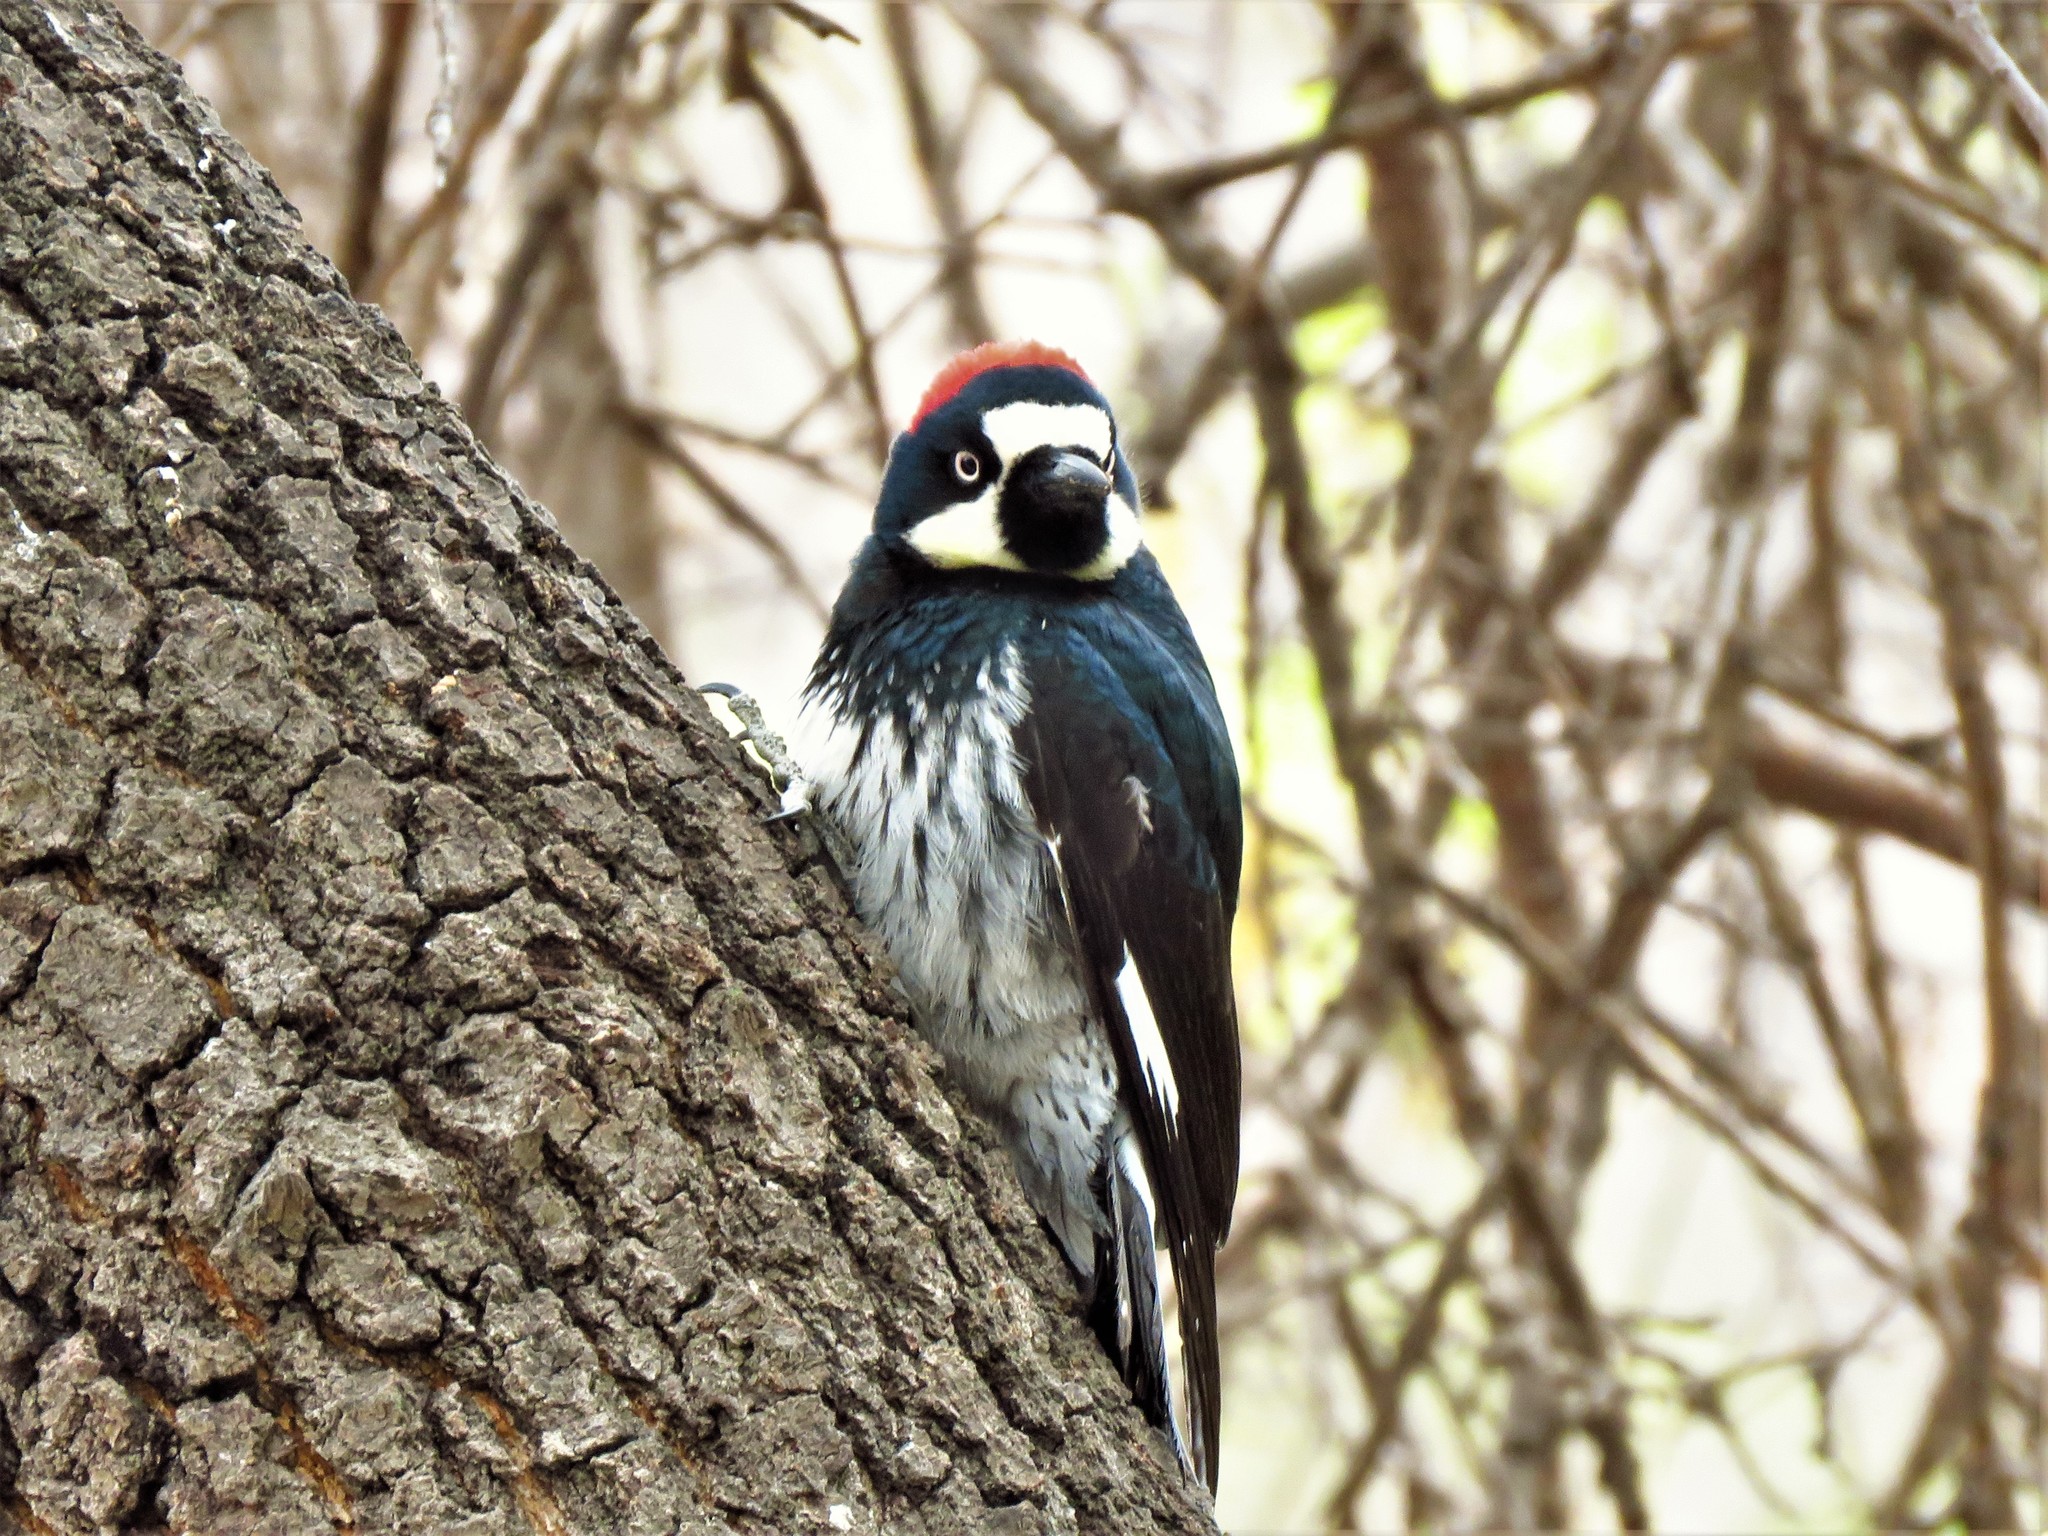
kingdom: Animalia
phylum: Chordata
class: Aves
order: Piciformes
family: Picidae
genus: Melanerpes
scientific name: Melanerpes formicivorus
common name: Acorn woodpecker
